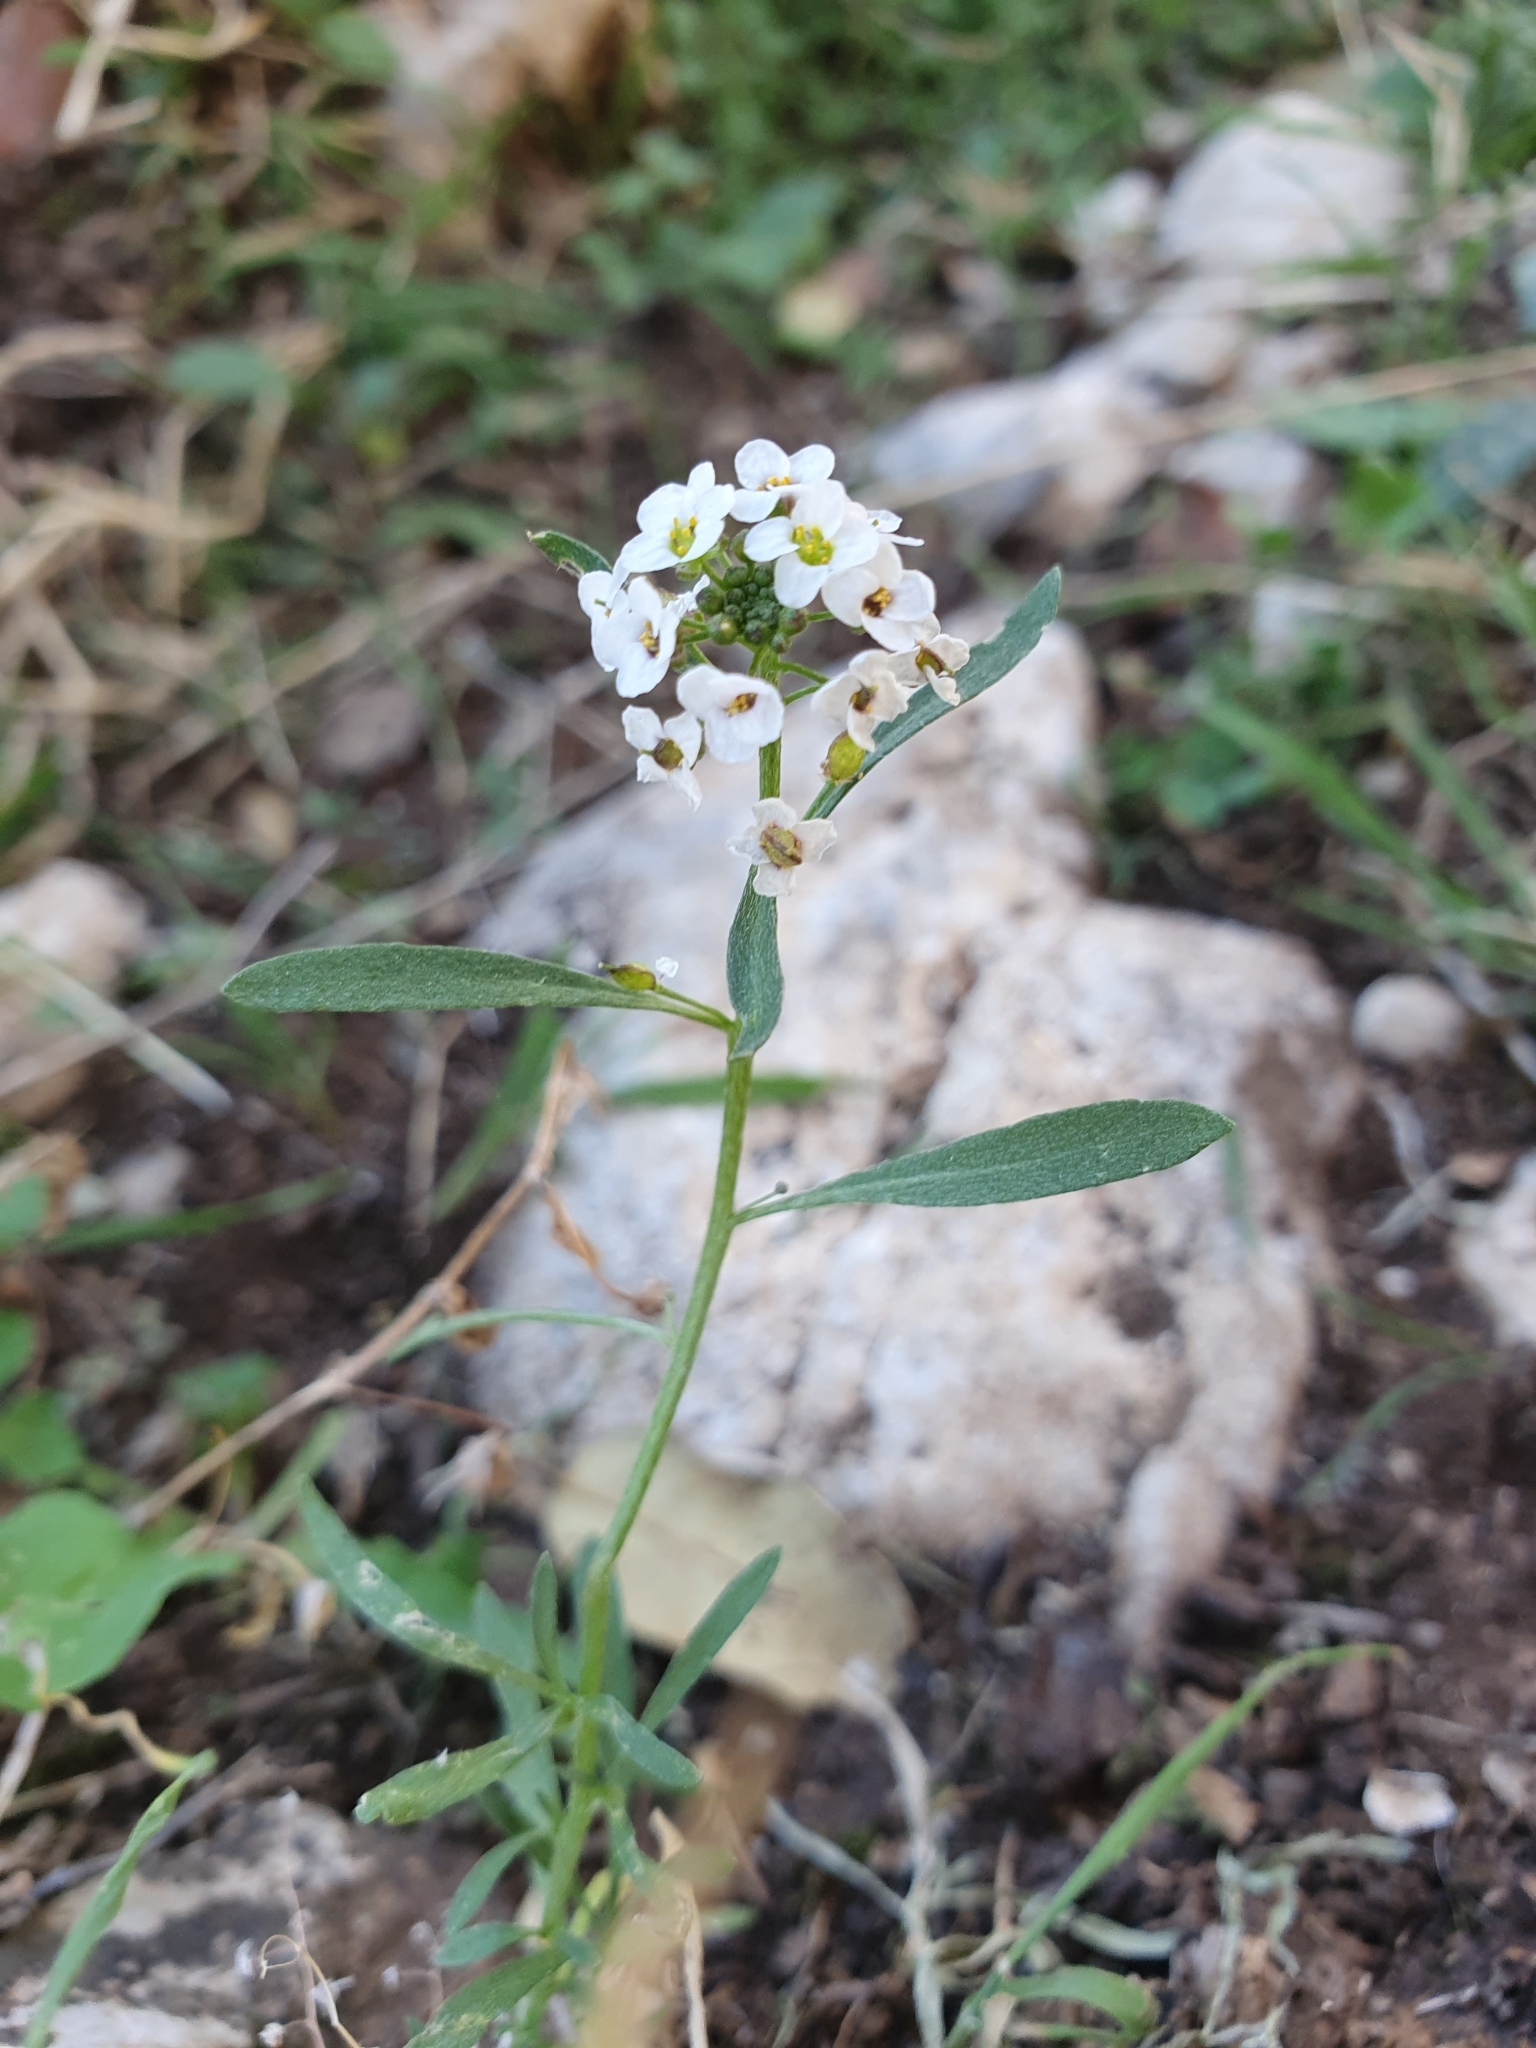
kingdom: Plantae
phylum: Tracheophyta
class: Magnoliopsida
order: Brassicales
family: Brassicaceae
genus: Lobularia
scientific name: Lobularia maritima
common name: Sweet alison
